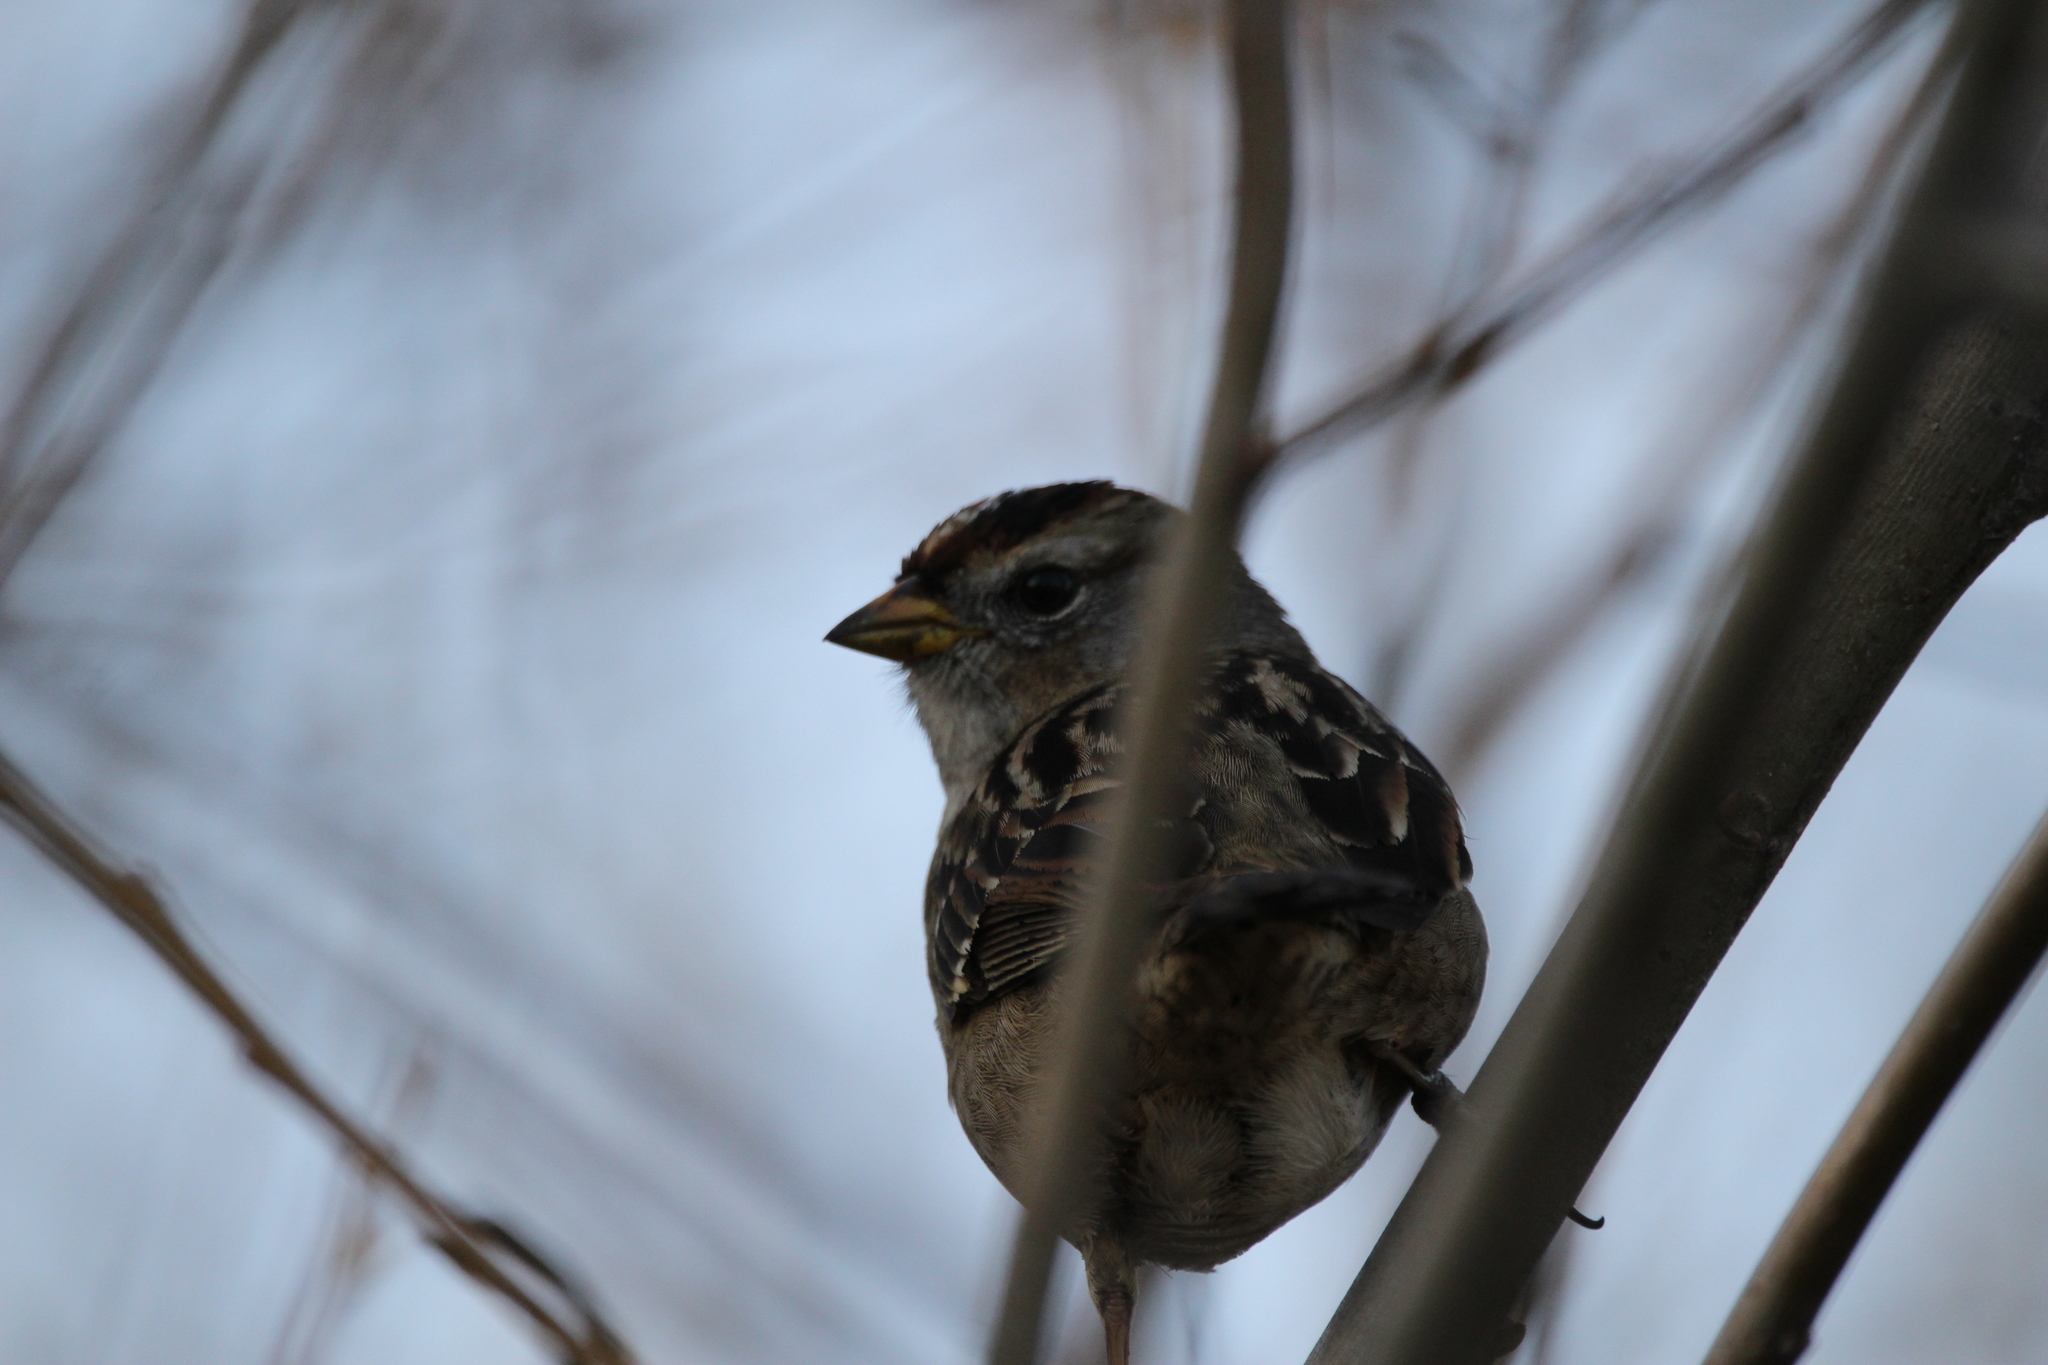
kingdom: Animalia
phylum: Chordata
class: Aves
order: Passeriformes
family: Passerellidae
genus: Zonotrichia
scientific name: Zonotrichia leucophrys
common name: White-crowned sparrow
